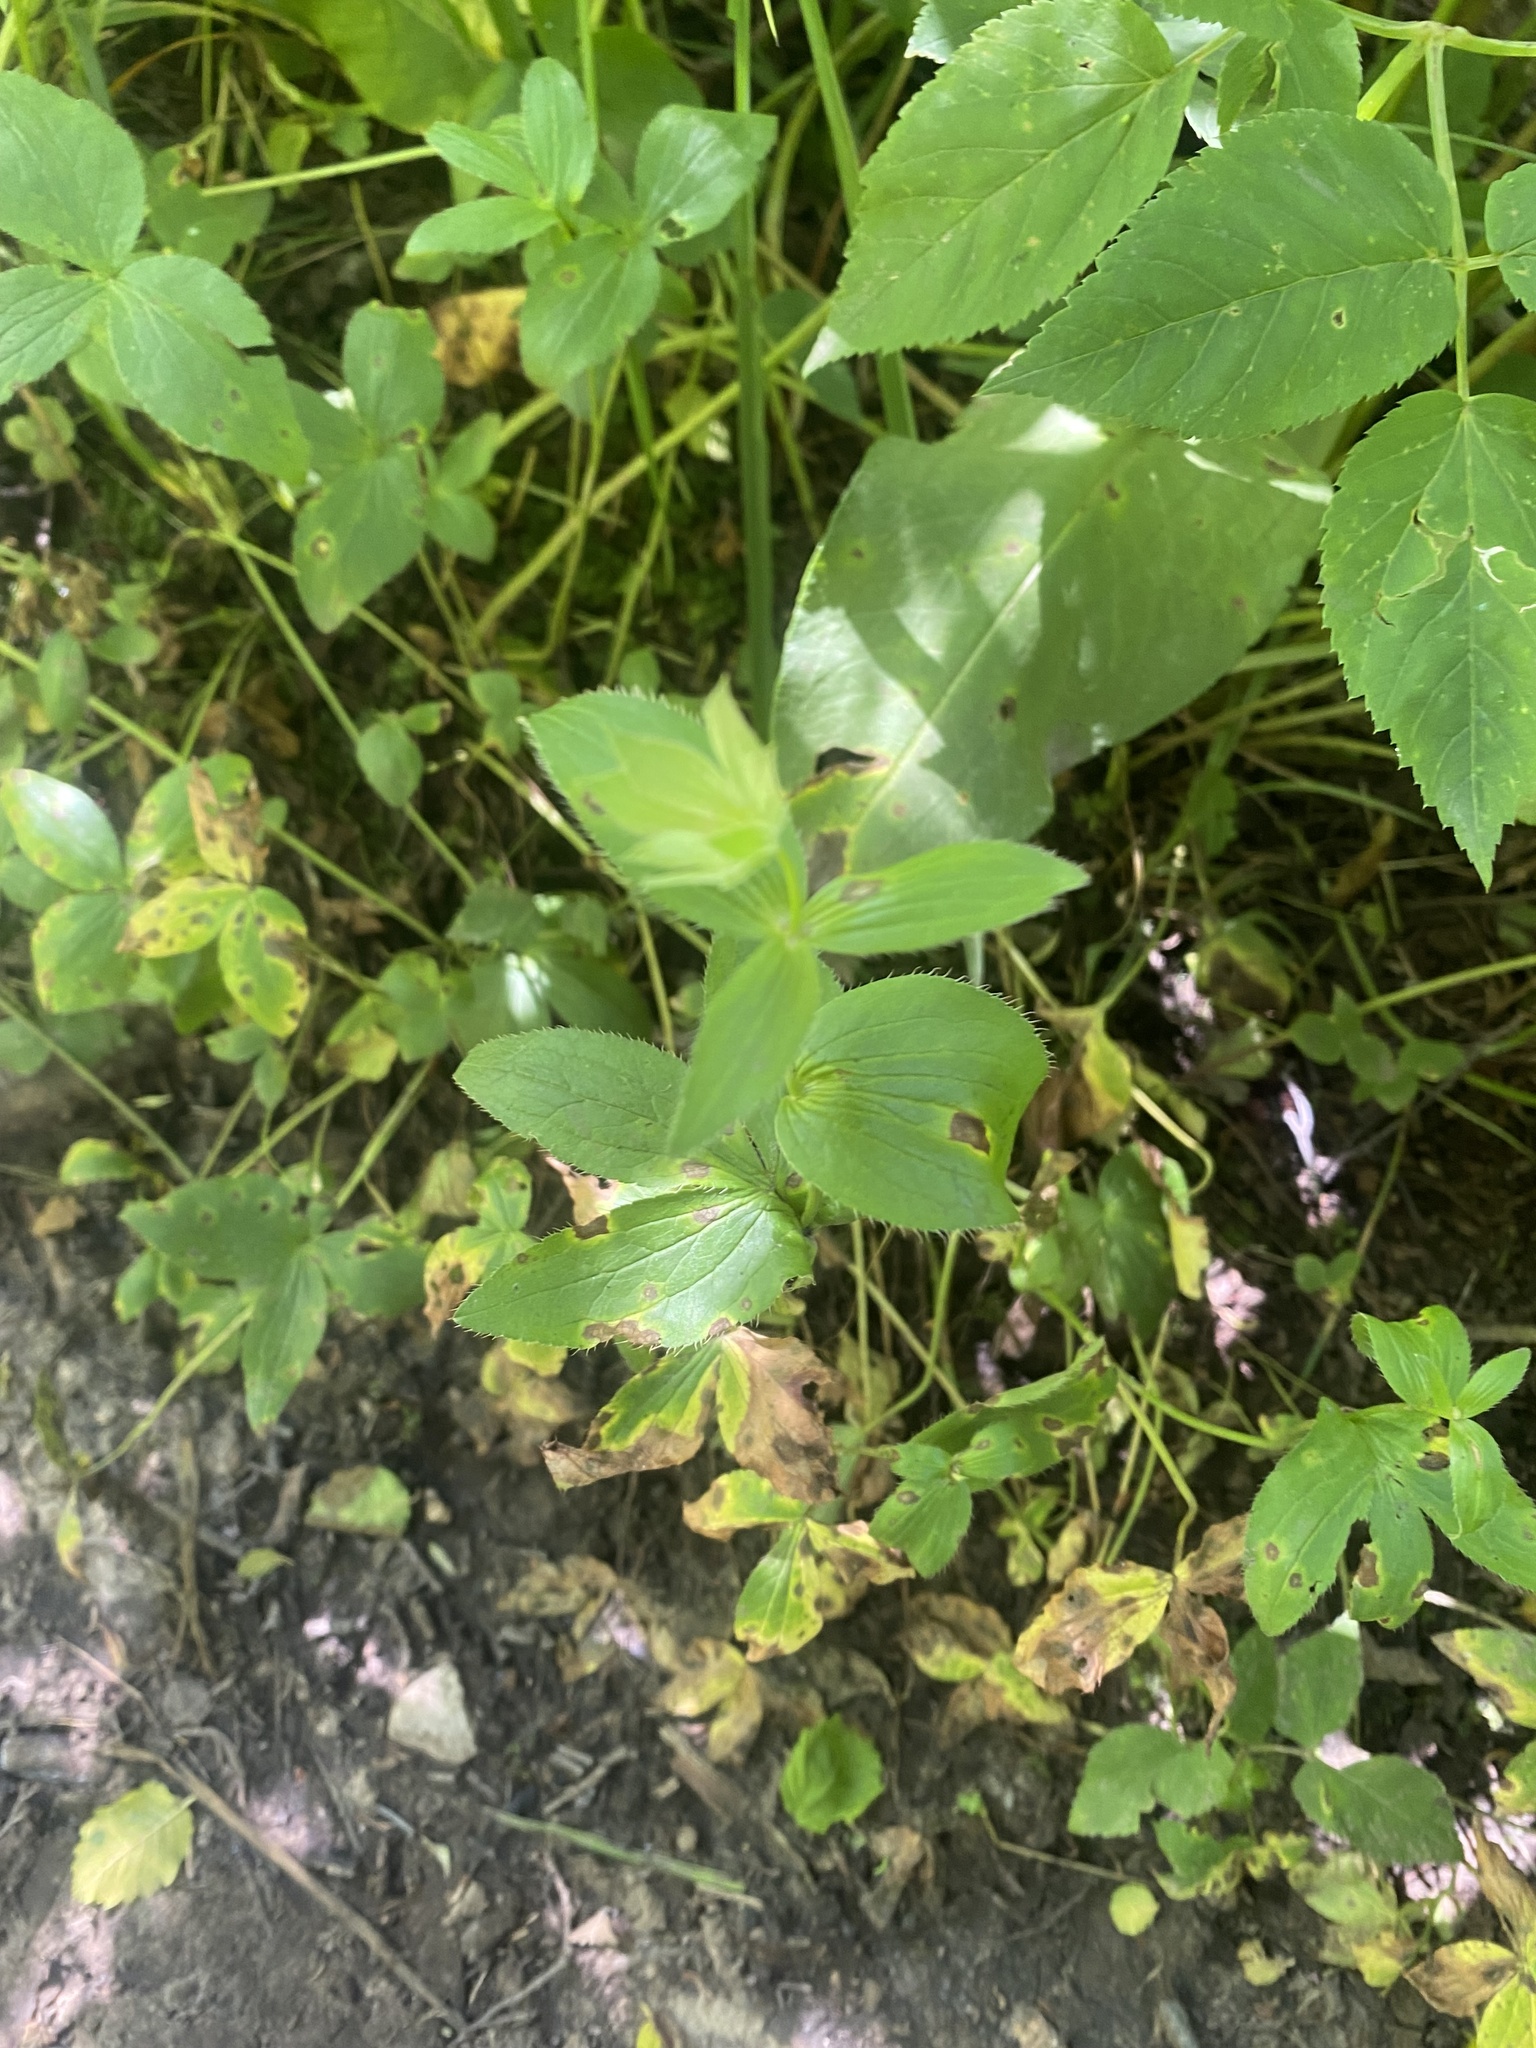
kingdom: Plantae
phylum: Tracheophyta
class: Magnoliopsida
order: Apiales
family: Apiaceae
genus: Astrantia
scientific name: Astrantia maxima
